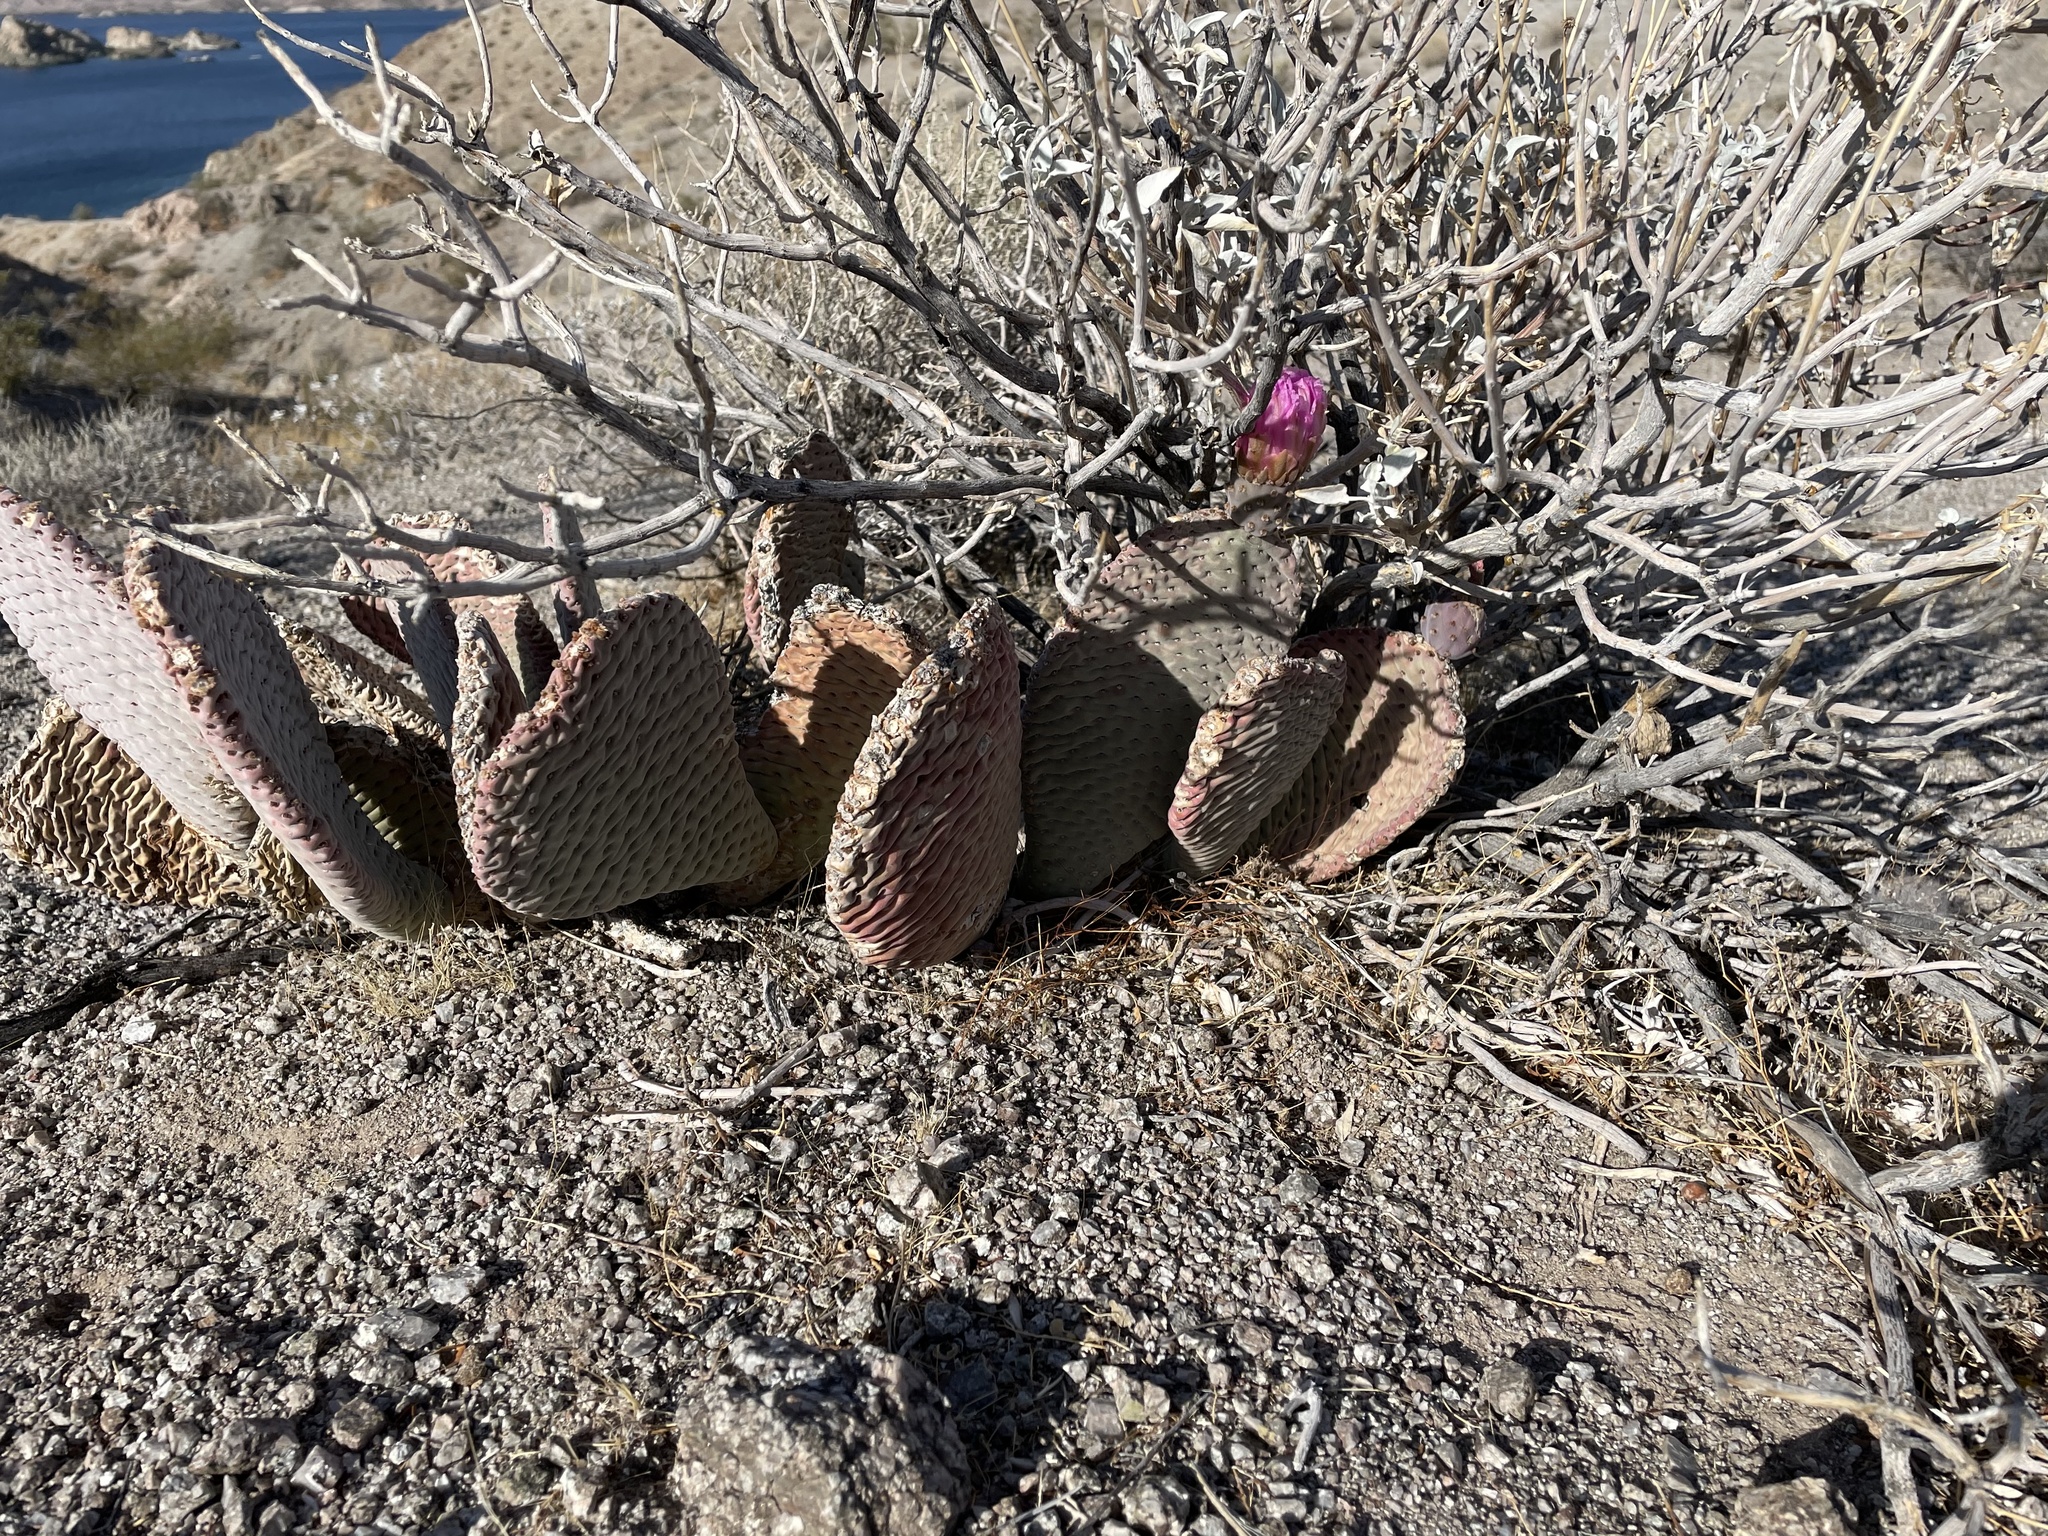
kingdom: Plantae
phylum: Tracheophyta
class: Magnoliopsida
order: Caryophyllales
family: Cactaceae
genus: Opuntia
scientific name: Opuntia basilaris
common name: Beavertail prickly-pear
